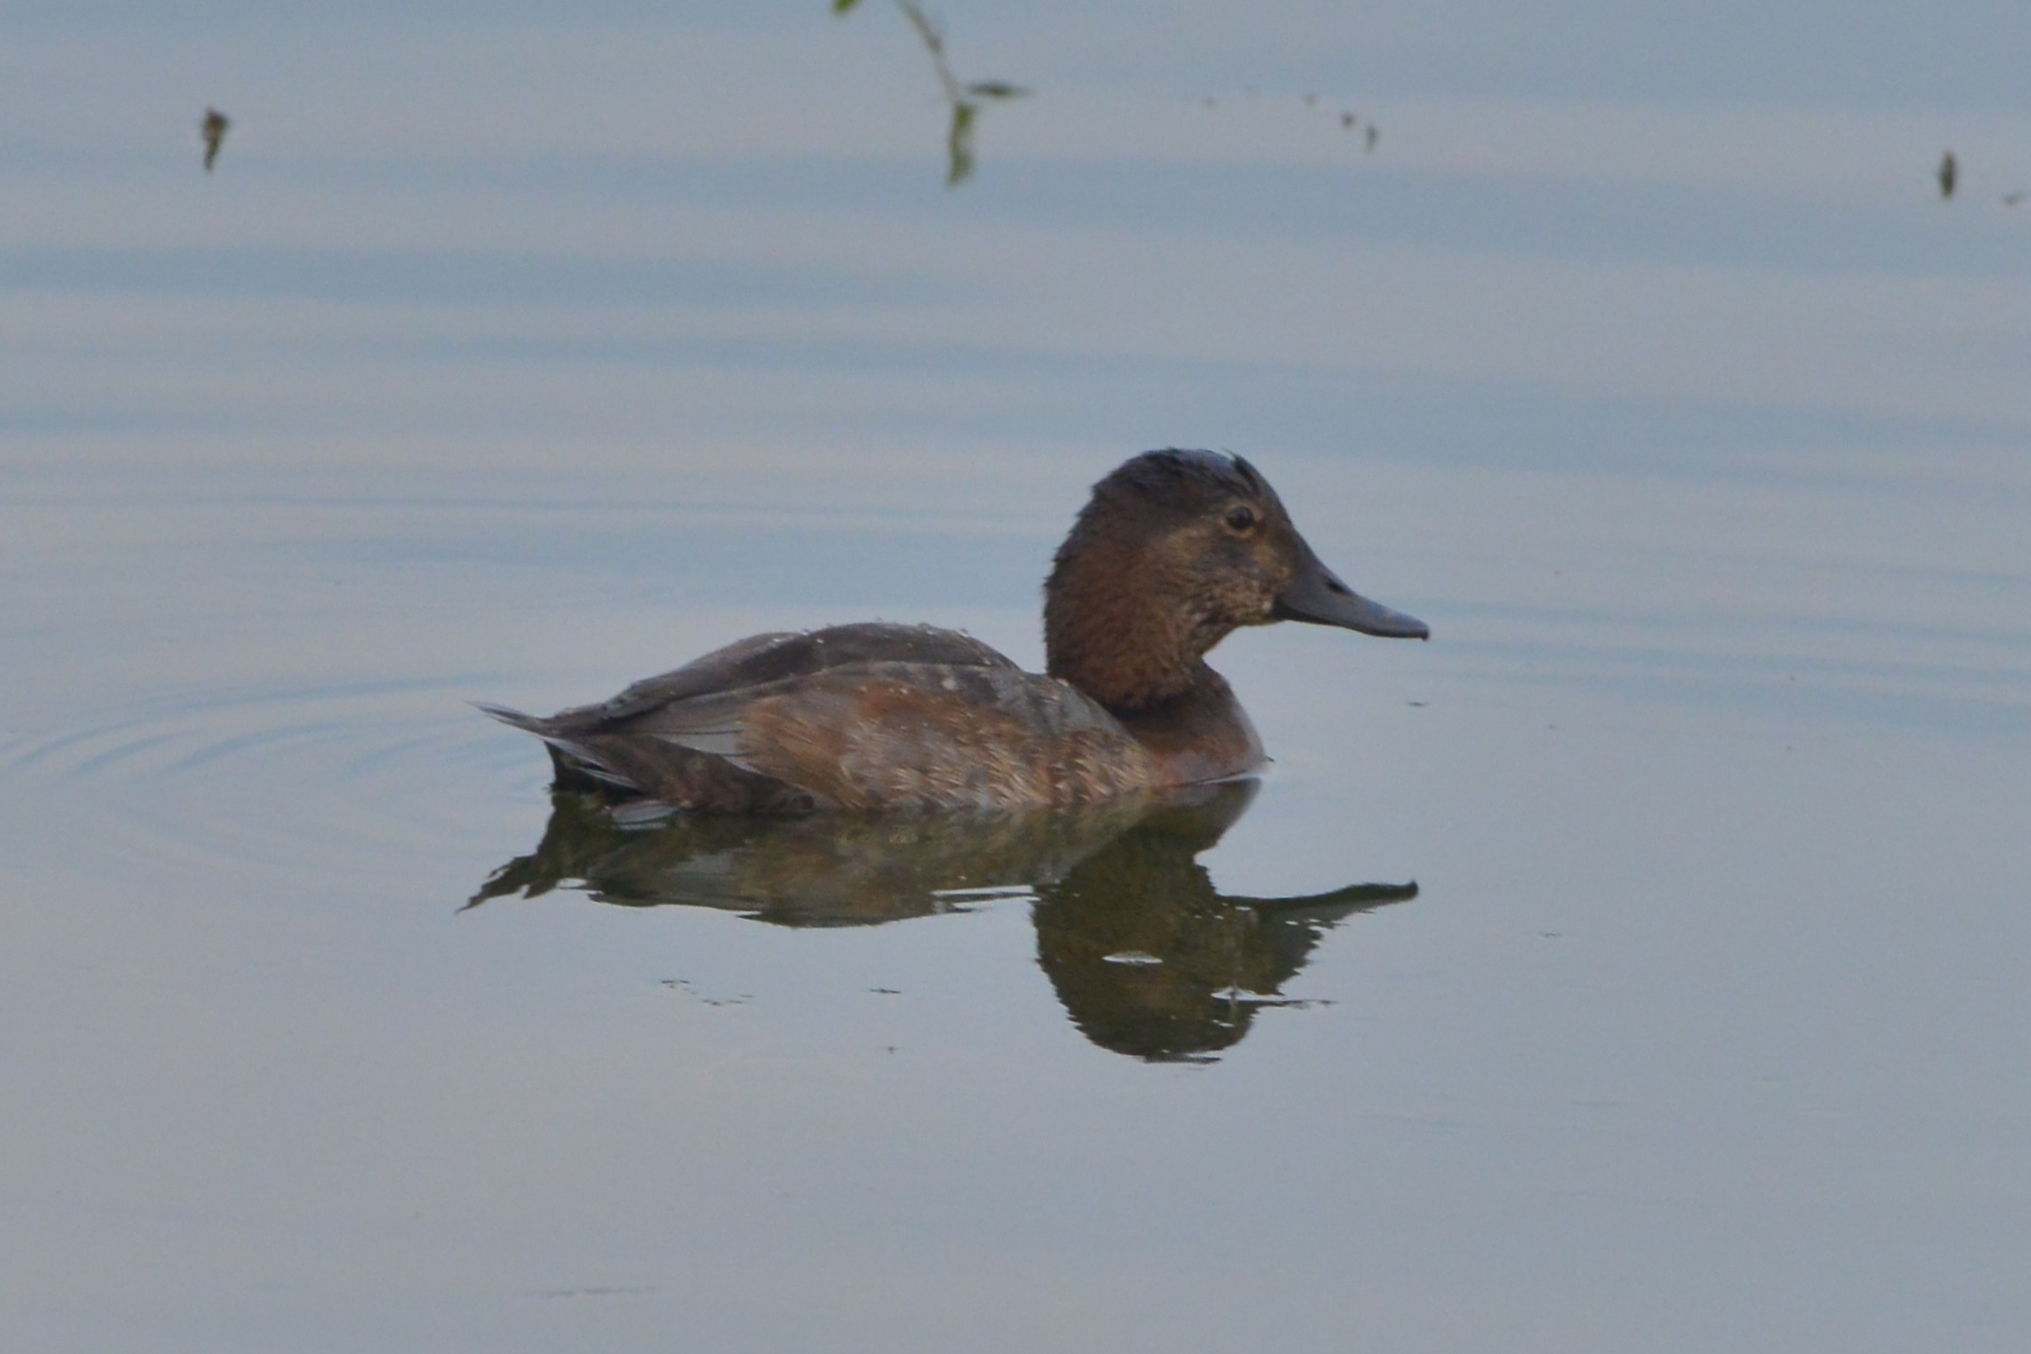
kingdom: Animalia
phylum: Chordata
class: Aves
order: Anseriformes
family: Anatidae
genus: Aythya
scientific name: Aythya ferina
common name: Common pochard
